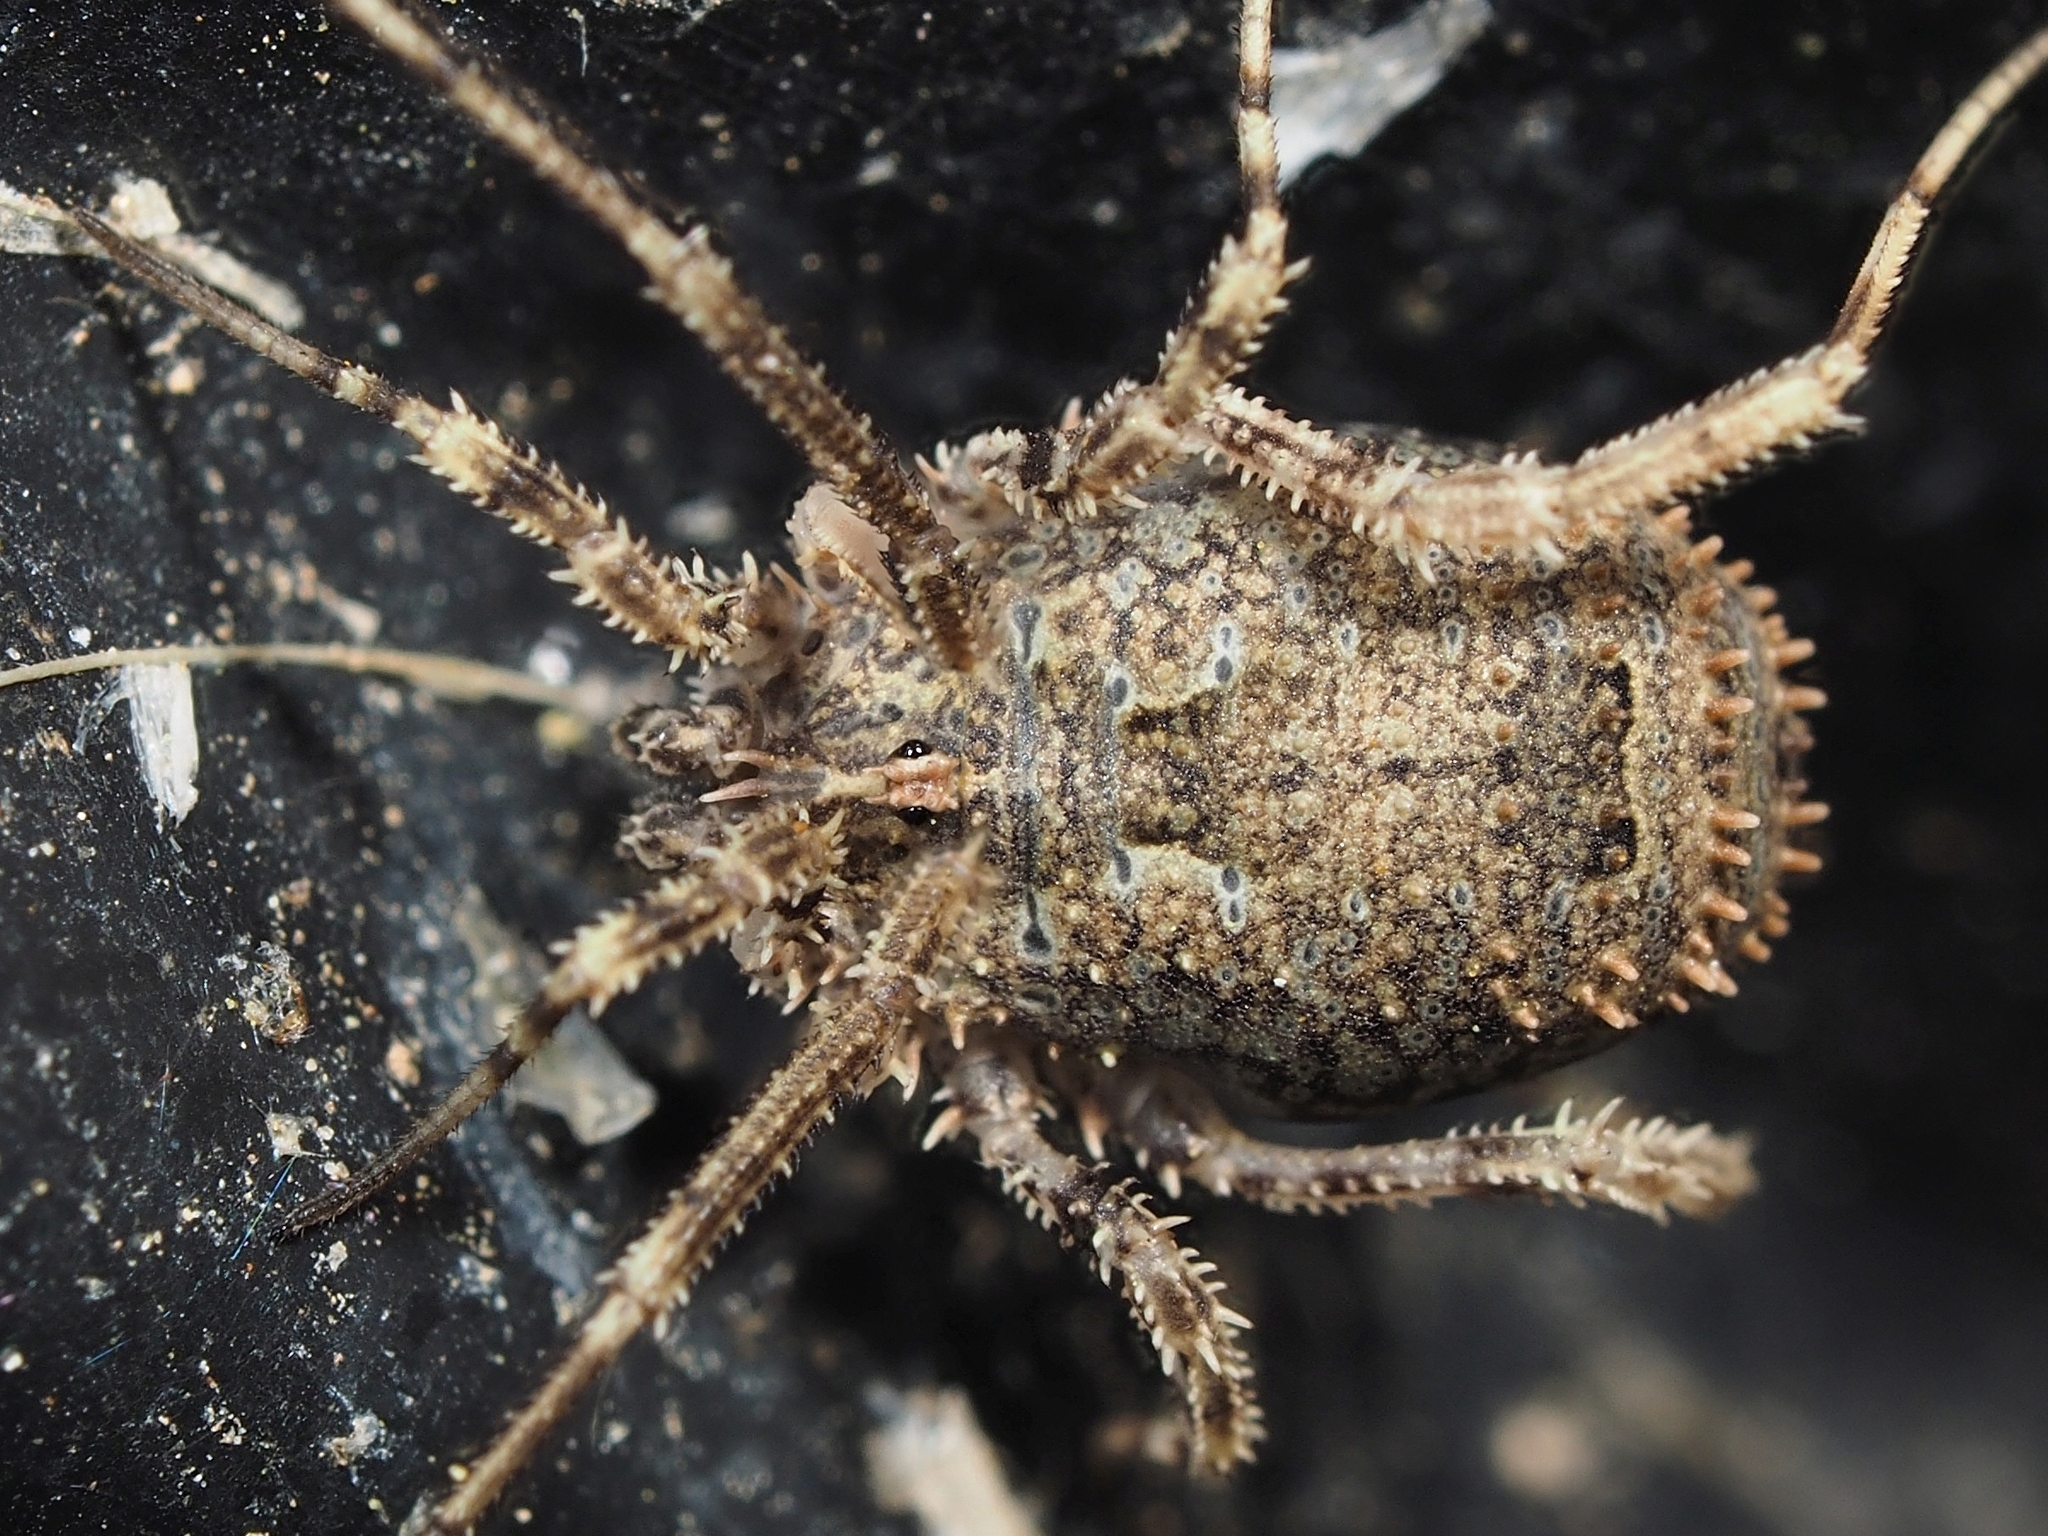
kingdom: Animalia
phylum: Arthropoda
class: Arachnida
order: Opiliones
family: Phalangiidae
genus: Lacinius
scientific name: Lacinius horridus
